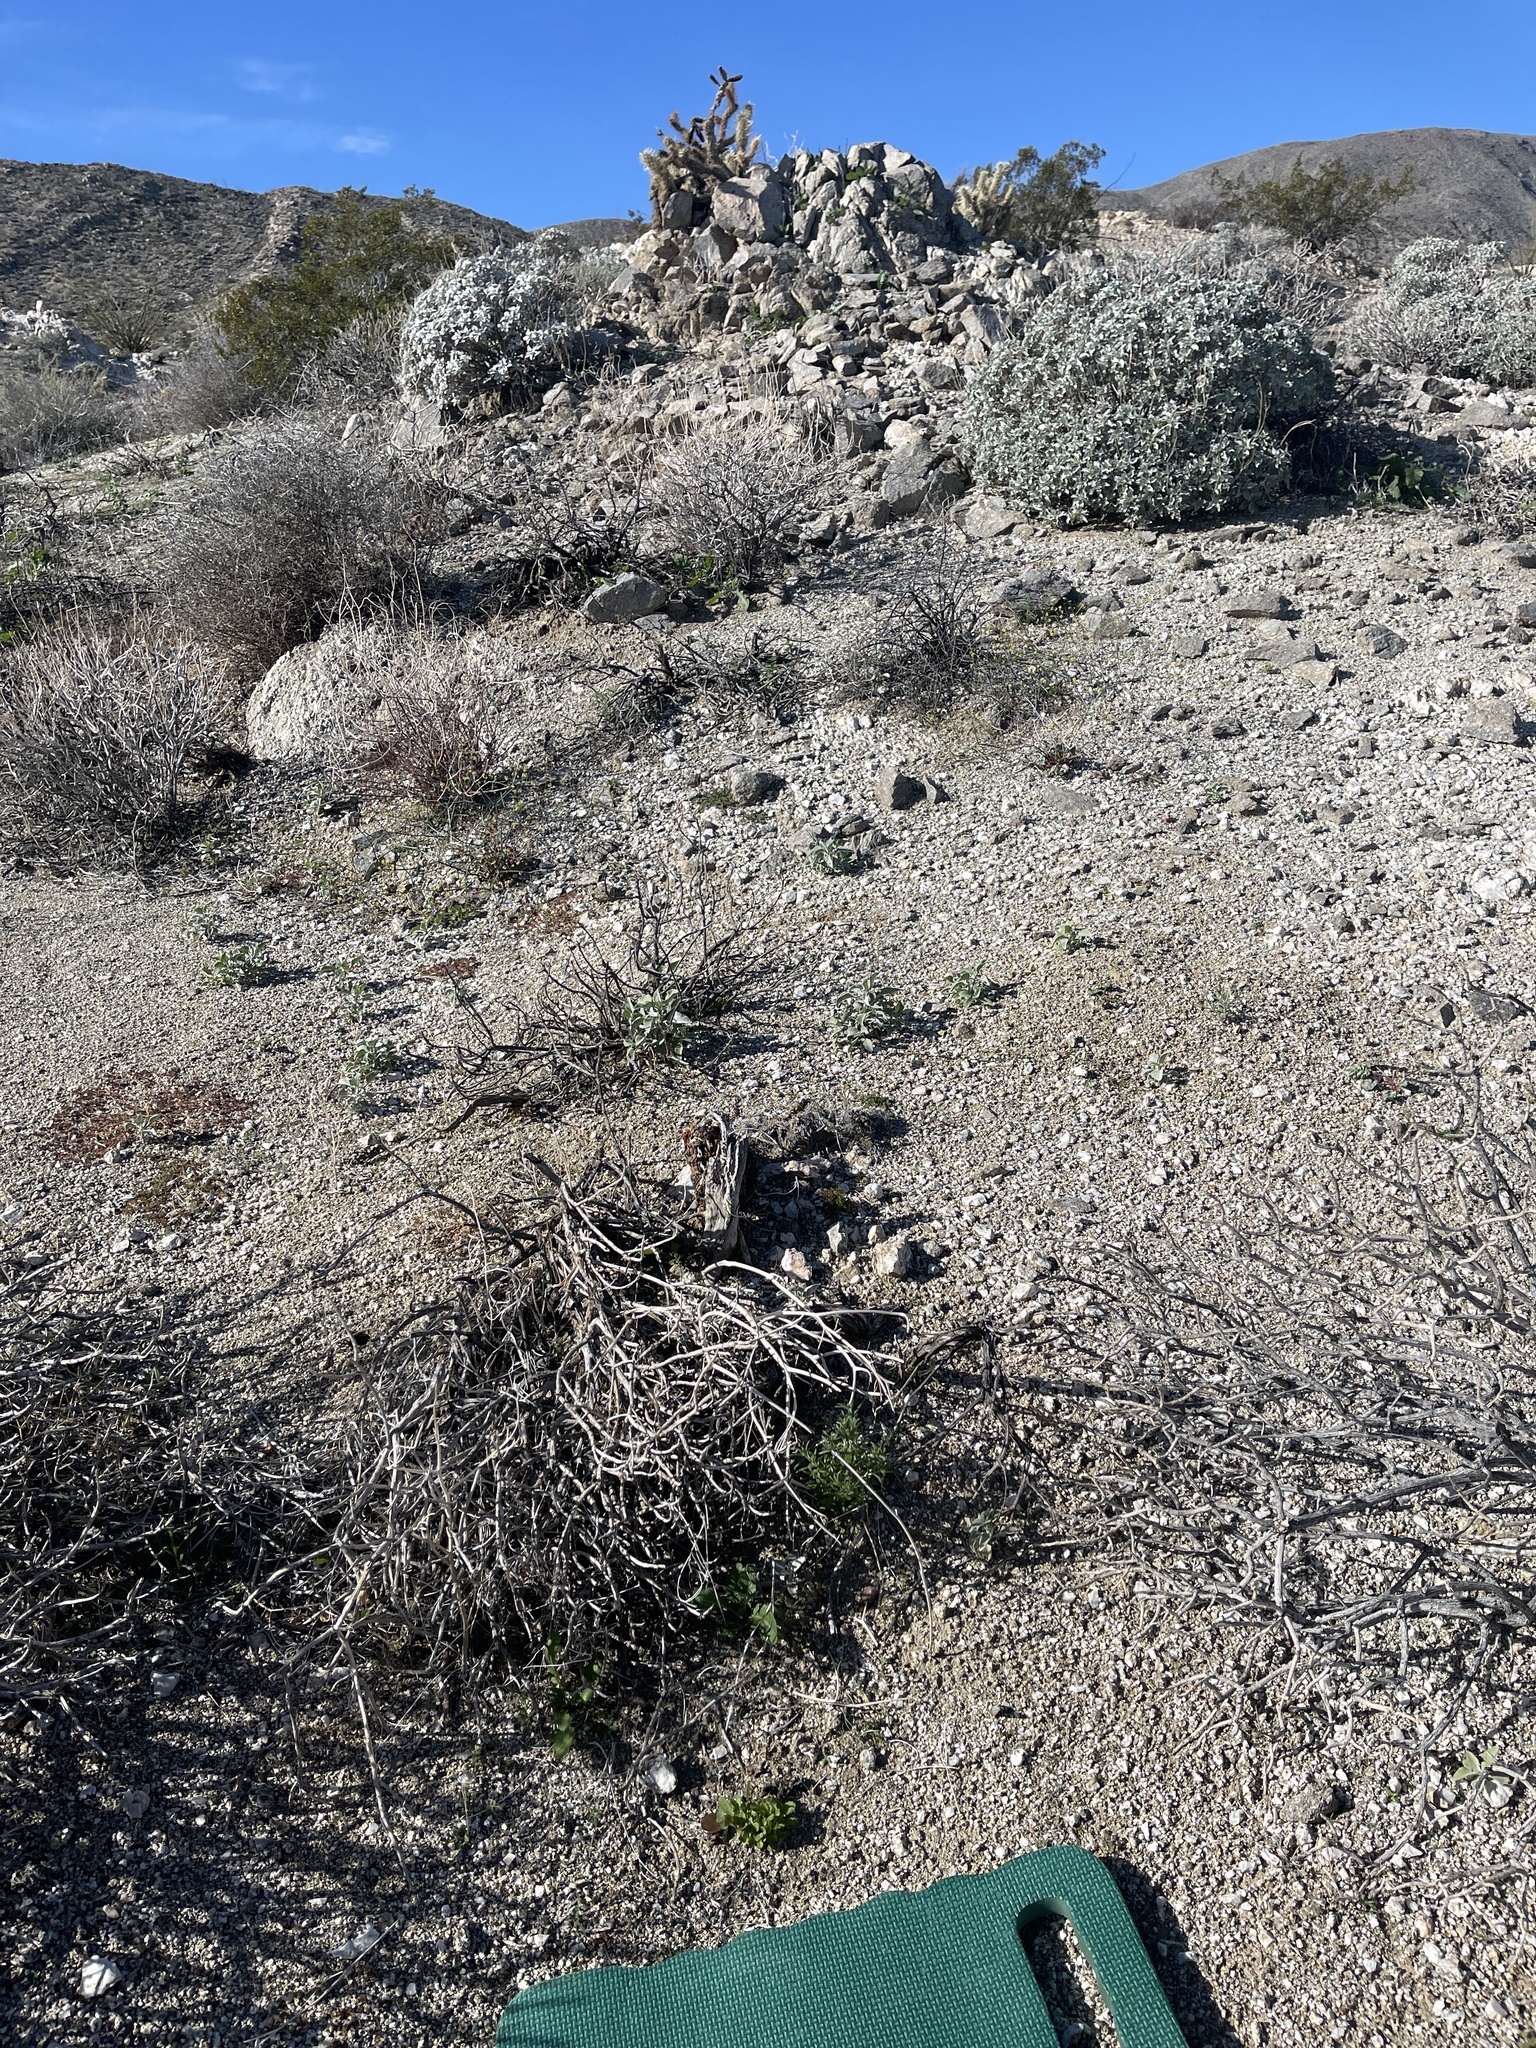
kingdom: Plantae
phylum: Tracheophyta
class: Magnoliopsida
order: Brassicales
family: Brassicaceae
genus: Brassica
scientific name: Brassica tournefortii
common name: Pale cabbage
